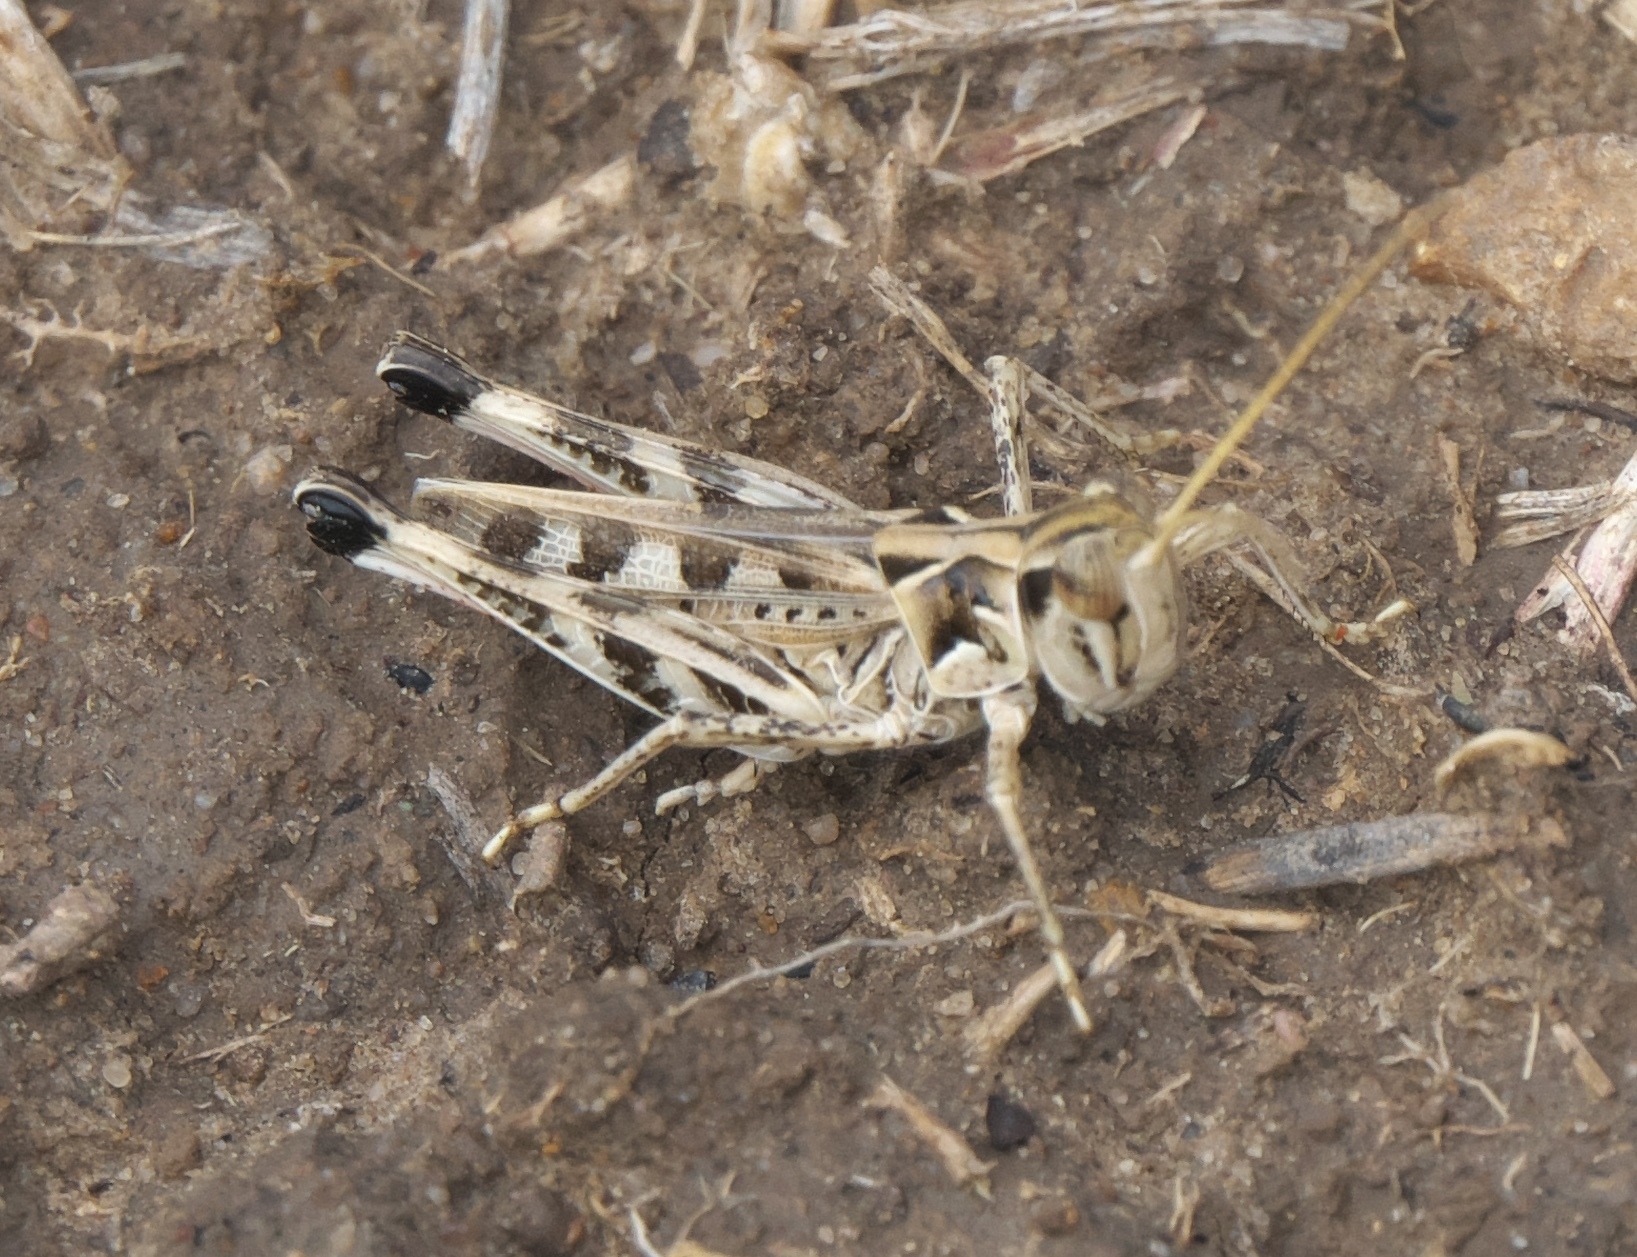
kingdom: Animalia
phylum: Arthropoda
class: Insecta
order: Orthoptera
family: Acrididae
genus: Phlibostroma
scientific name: Phlibostroma quadrimaculatum
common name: Four-spotted grasshopper
